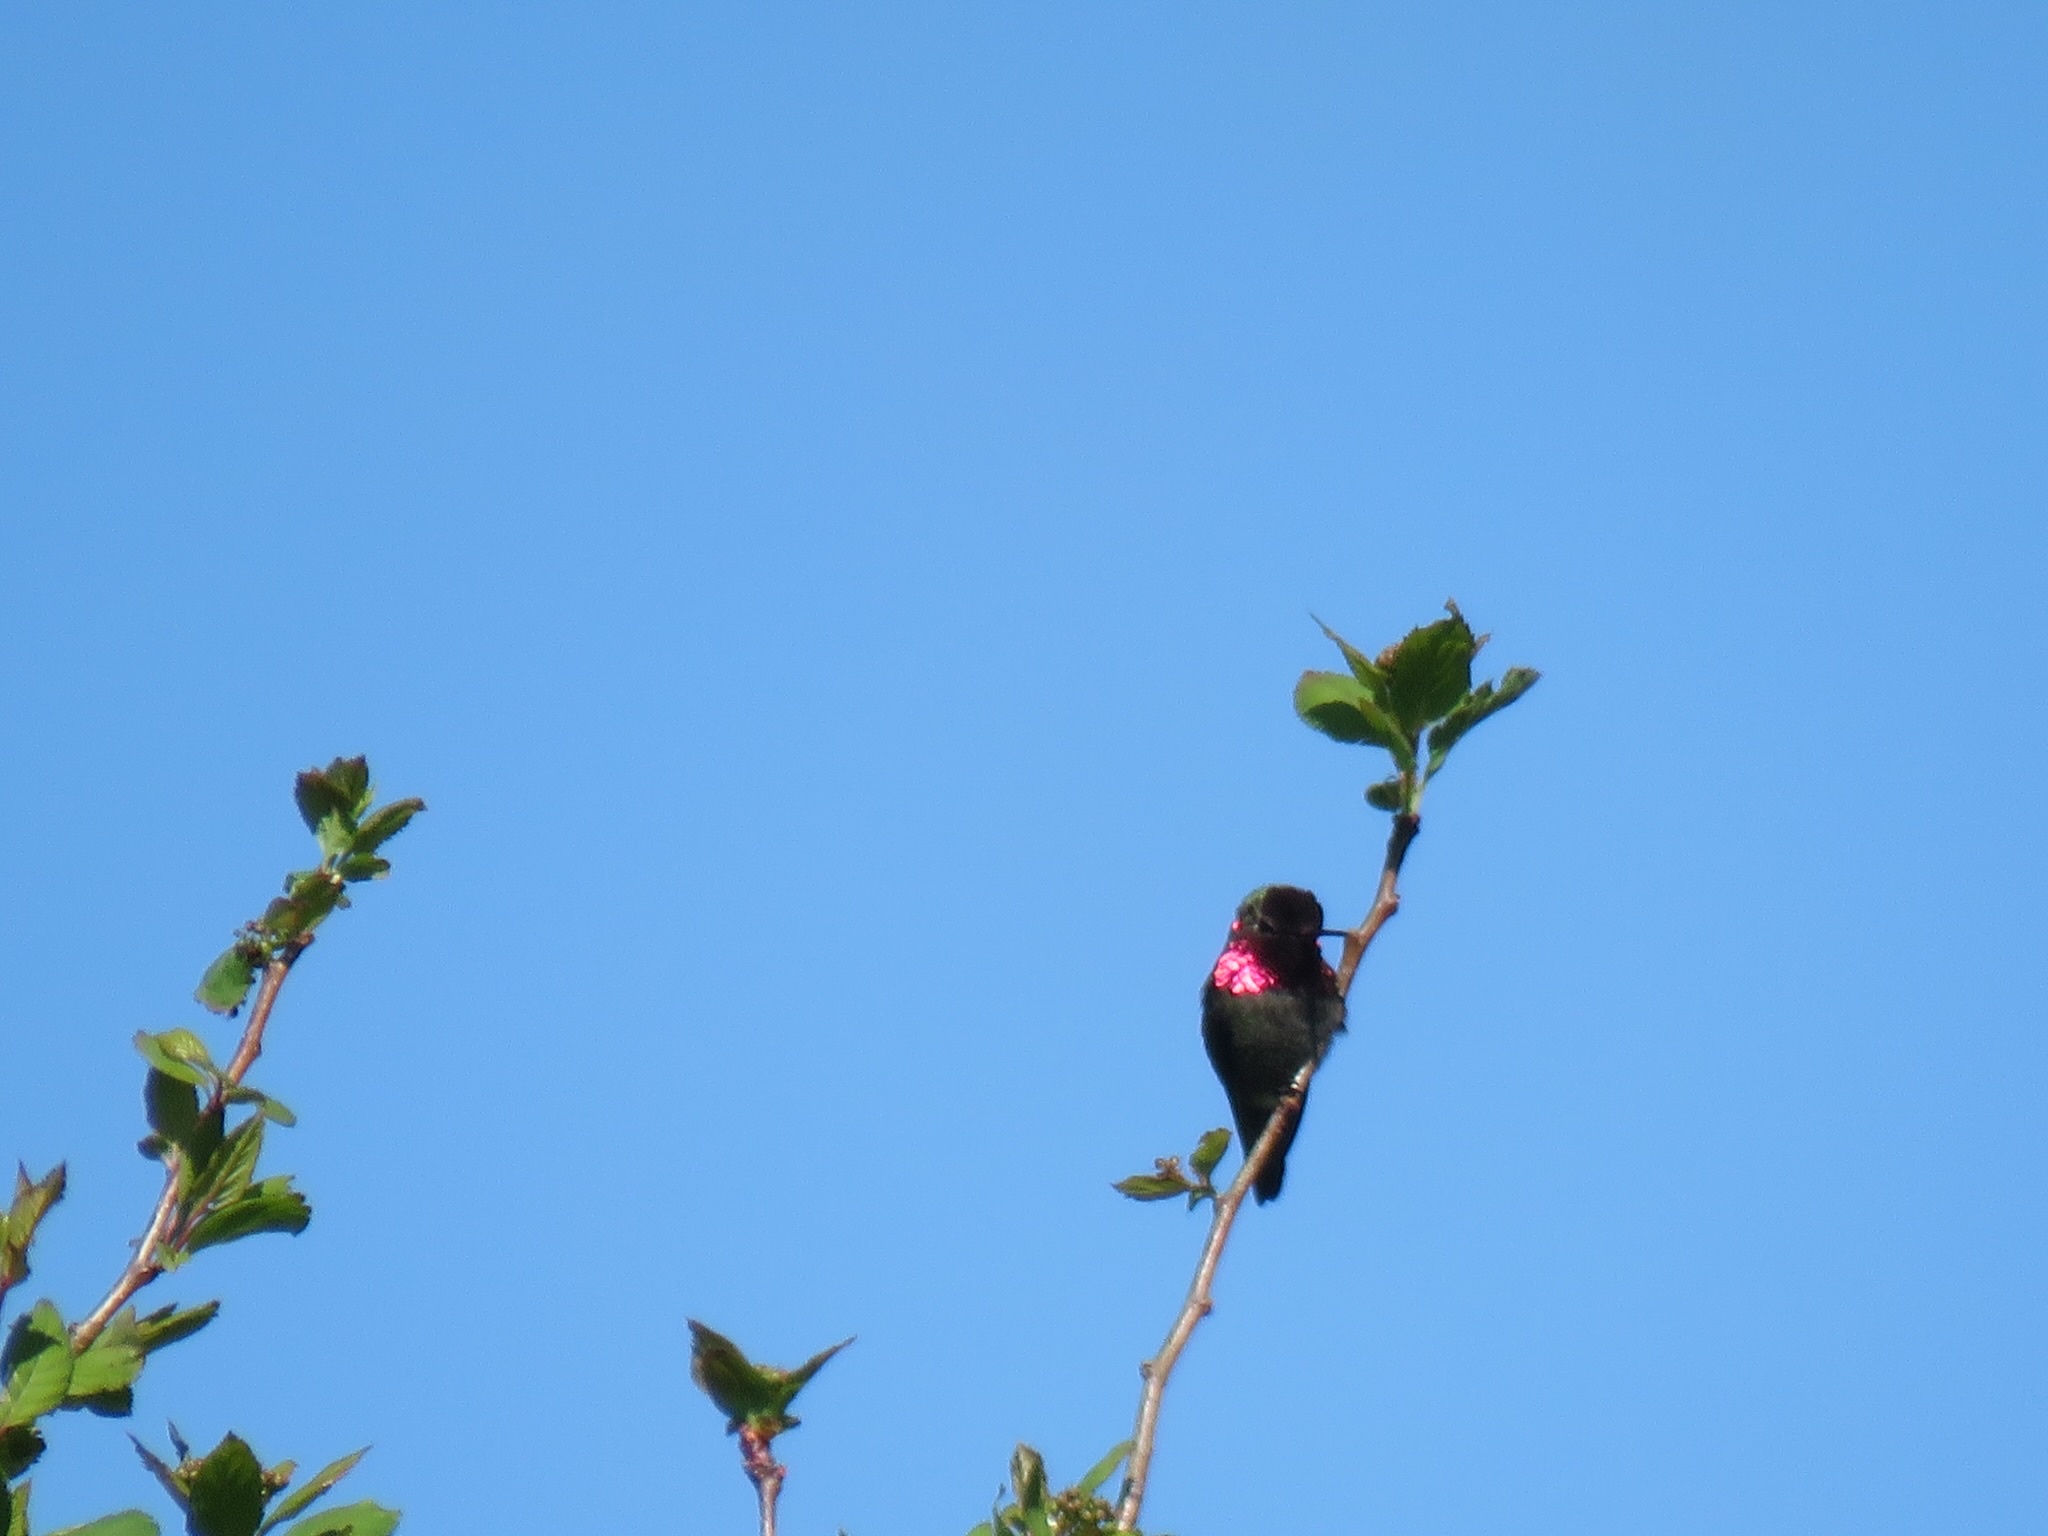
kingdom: Animalia
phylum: Chordata
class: Aves
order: Apodiformes
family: Trochilidae
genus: Calypte
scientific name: Calypte anna
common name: Anna's hummingbird
